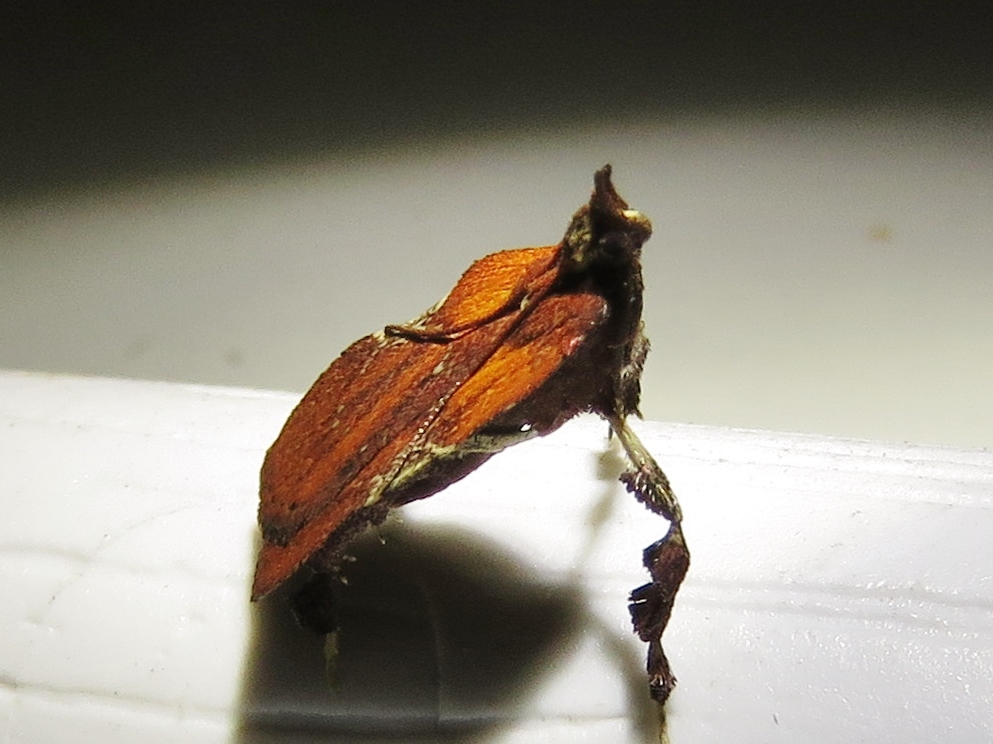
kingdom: Animalia
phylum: Arthropoda
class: Insecta
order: Lepidoptera
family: Pyralidae
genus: Galasa
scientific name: Galasa nigrinodis
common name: Boxwood leaftier moth
